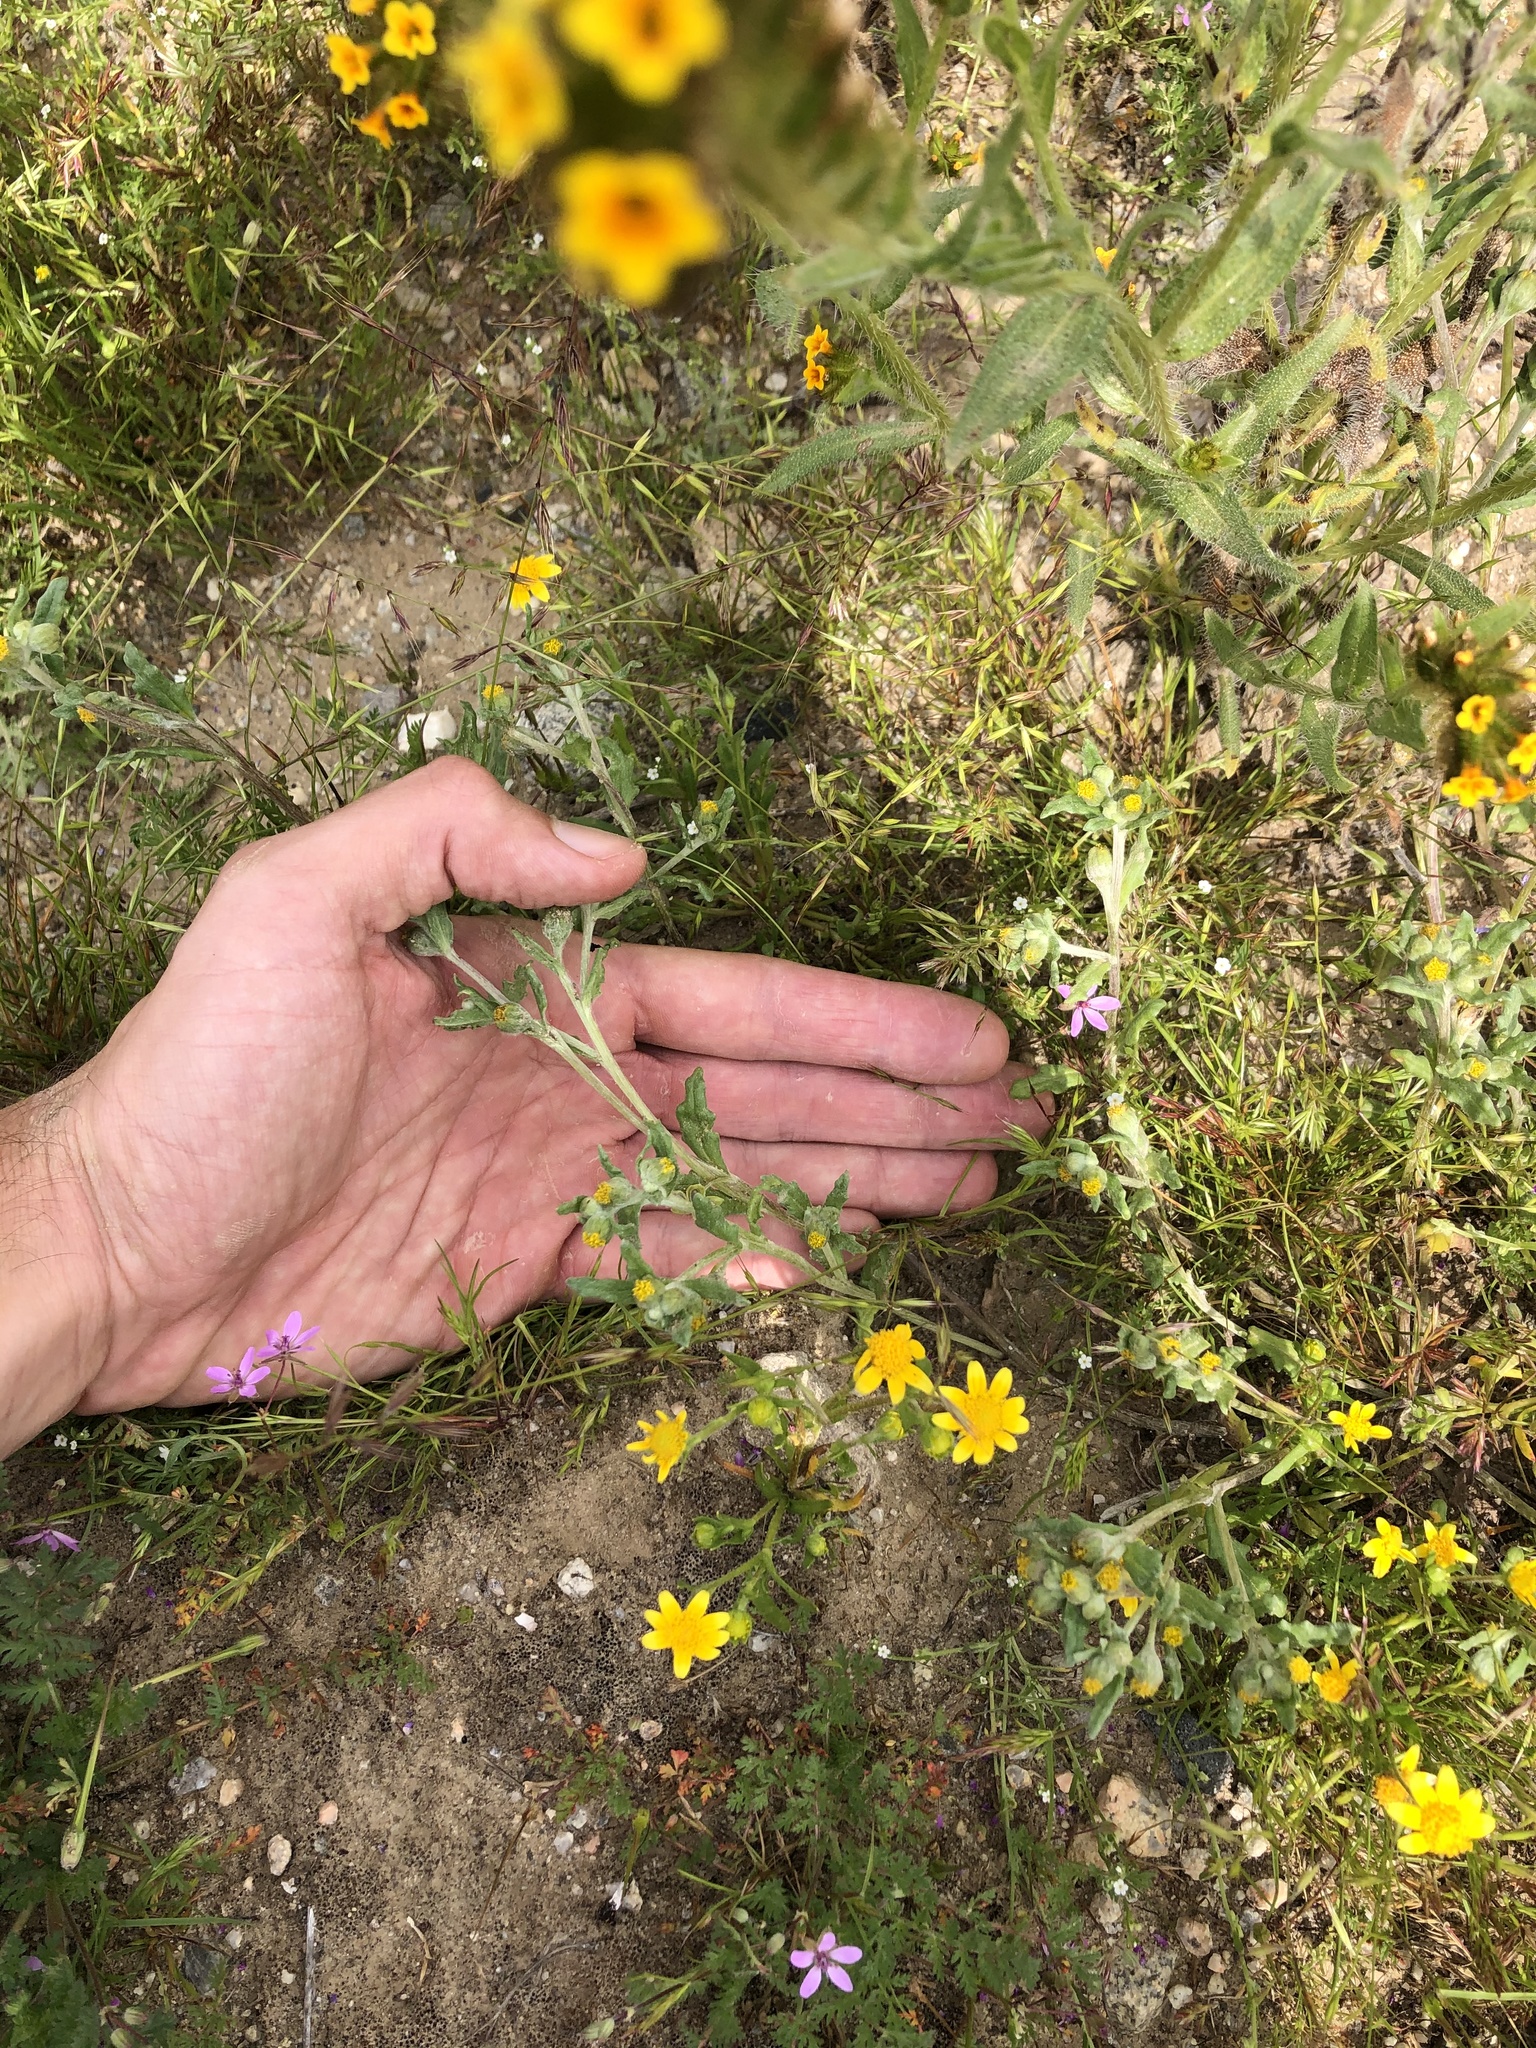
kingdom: Plantae
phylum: Tracheophyta
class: Magnoliopsida
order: Asterales
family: Asteraceae
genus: Monolopia
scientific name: Monolopia congdonii
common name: San joaquin woolly-threads
